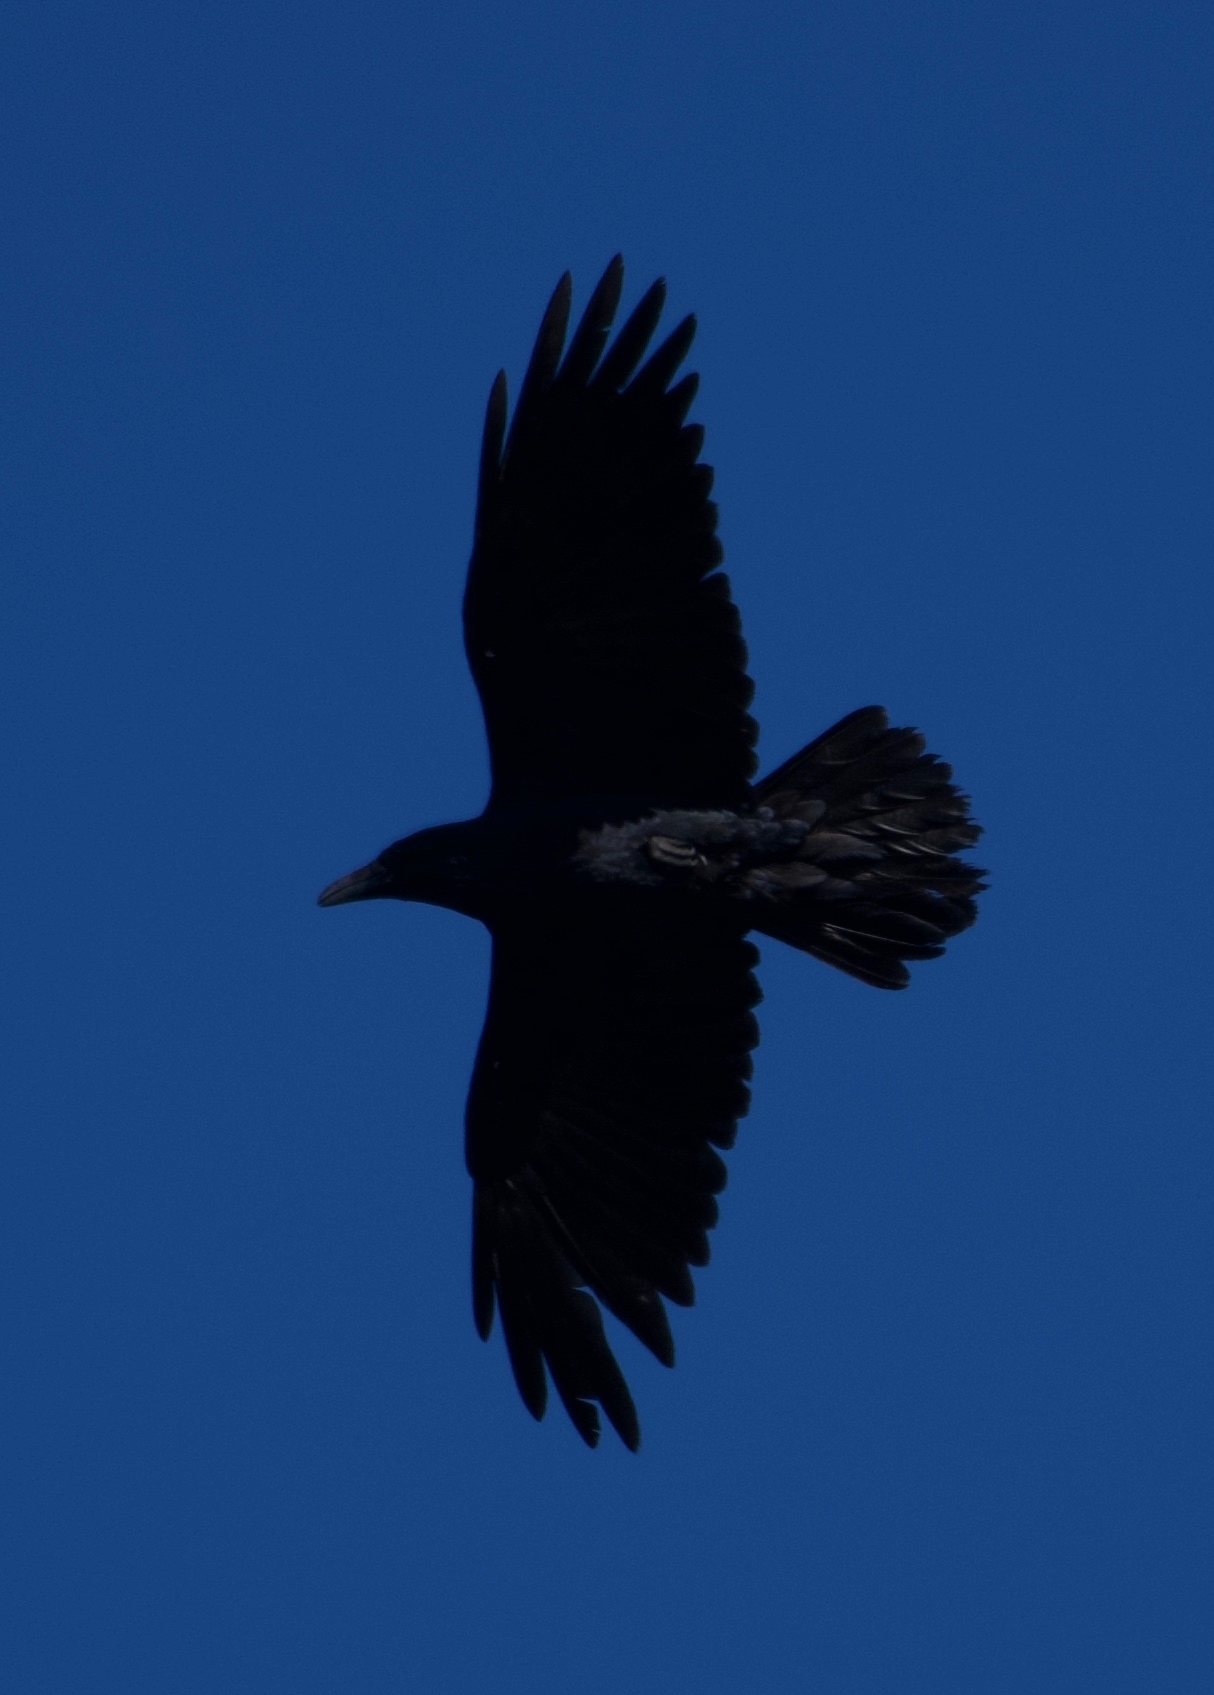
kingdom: Animalia
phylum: Chordata
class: Aves
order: Passeriformes
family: Corvidae
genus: Corvus
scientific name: Corvus corax
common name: Common raven
